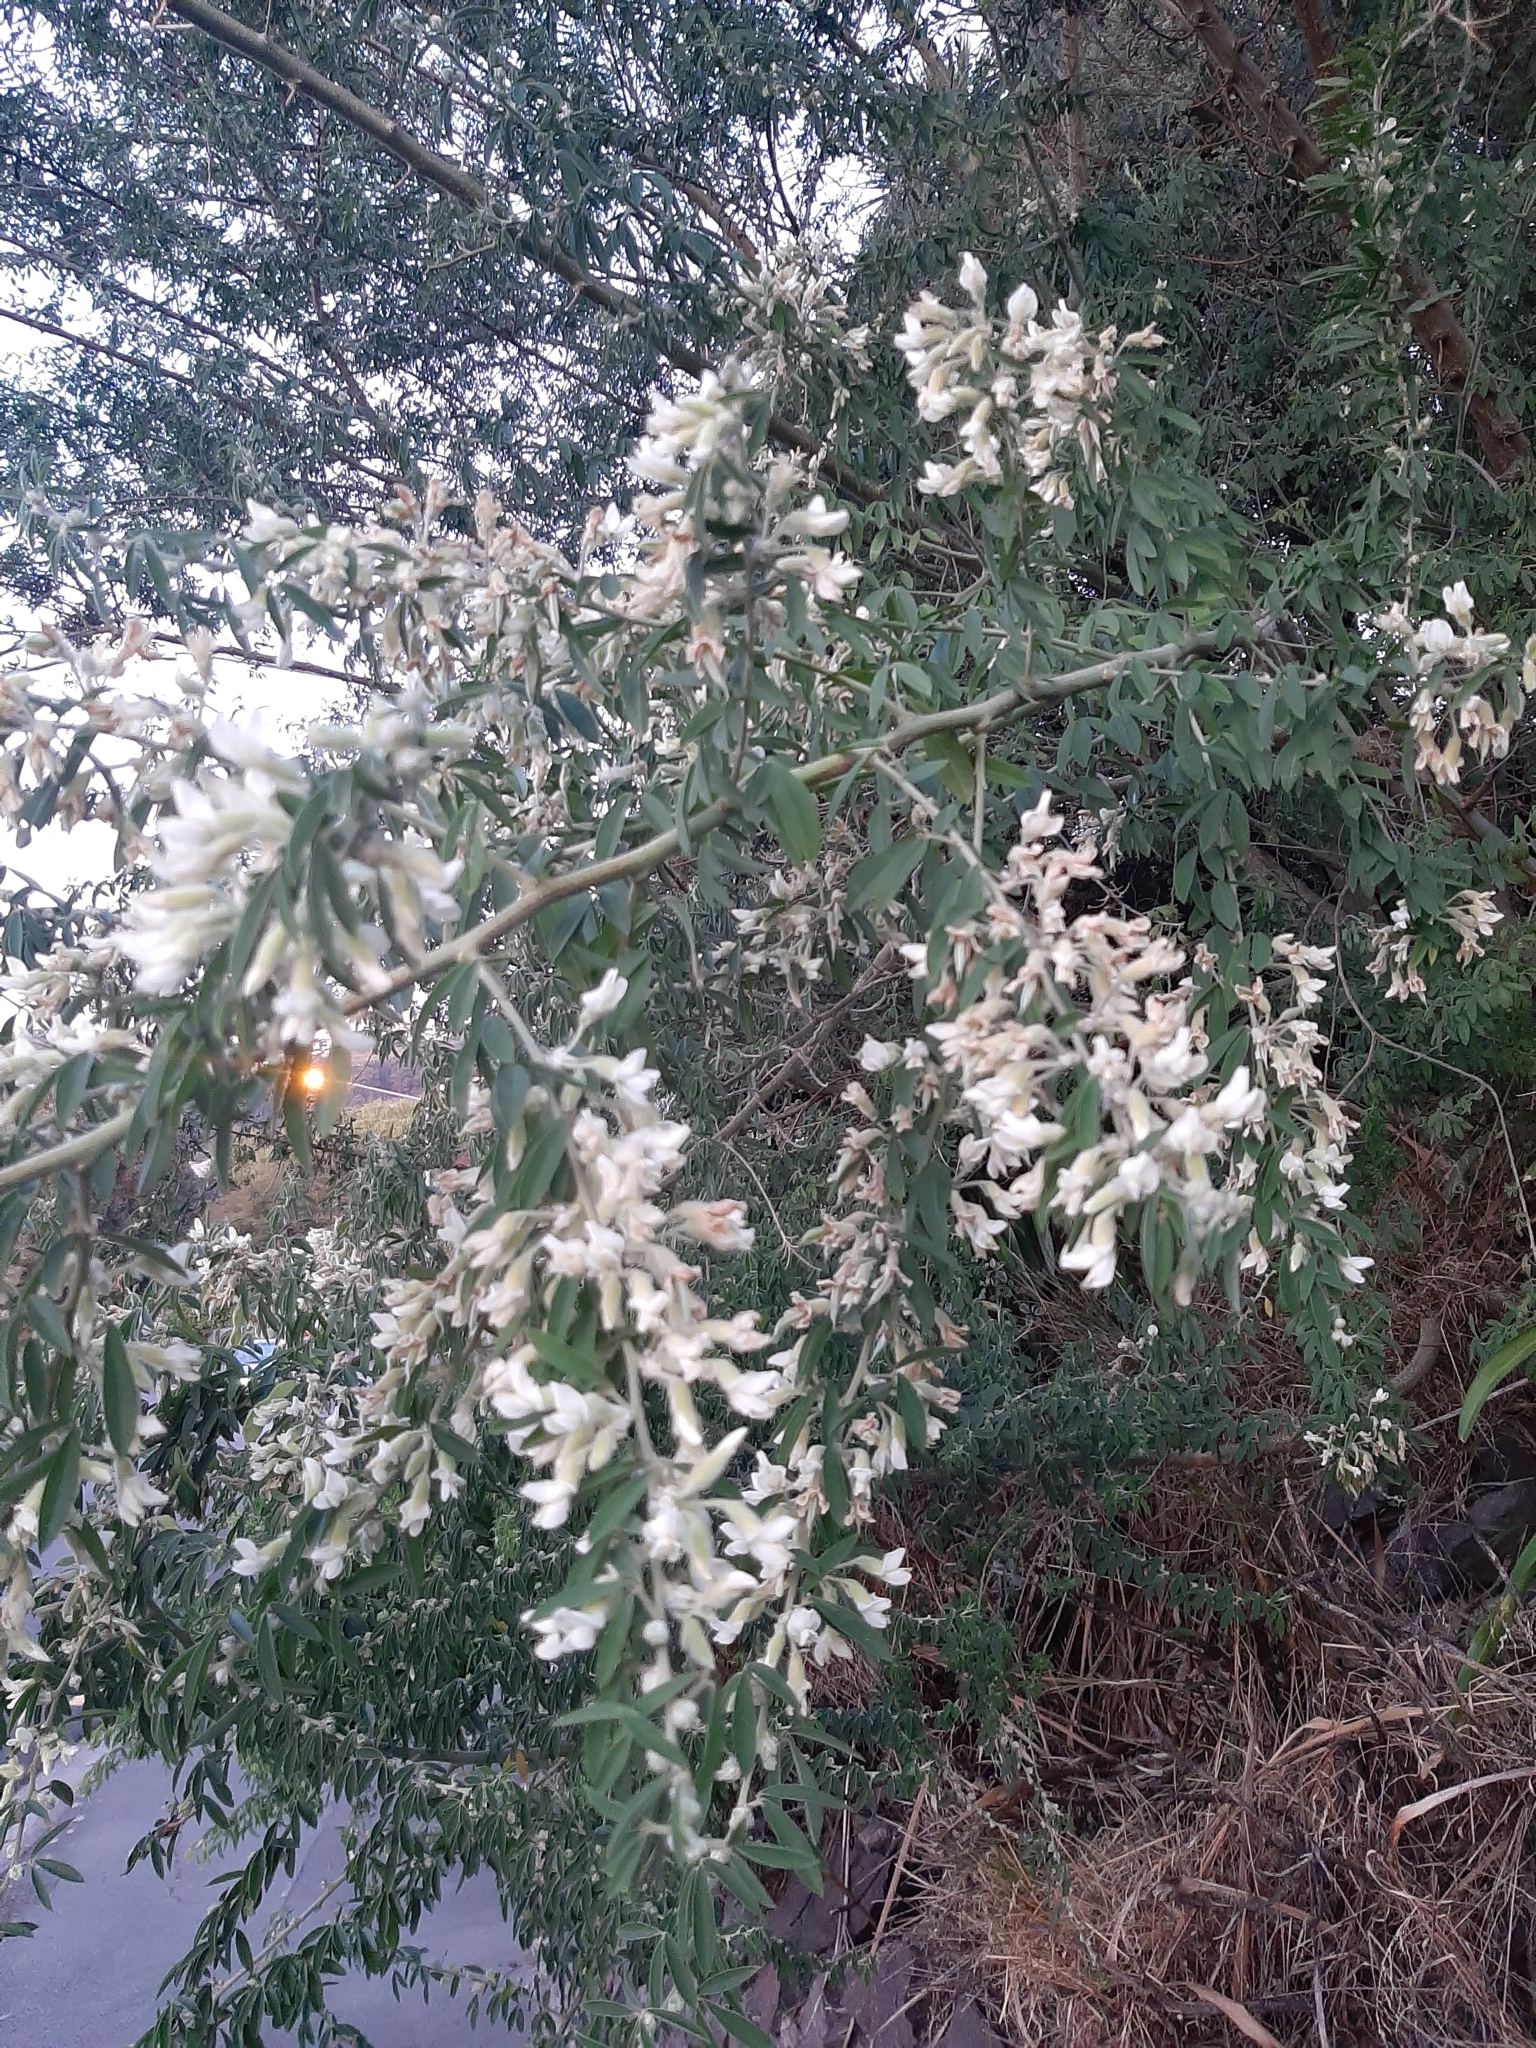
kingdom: Plantae
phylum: Tracheophyta
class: Magnoliopsida
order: Fabales
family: Fabaceae
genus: Chamaecytisus
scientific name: Chamaecytisus prolifer
